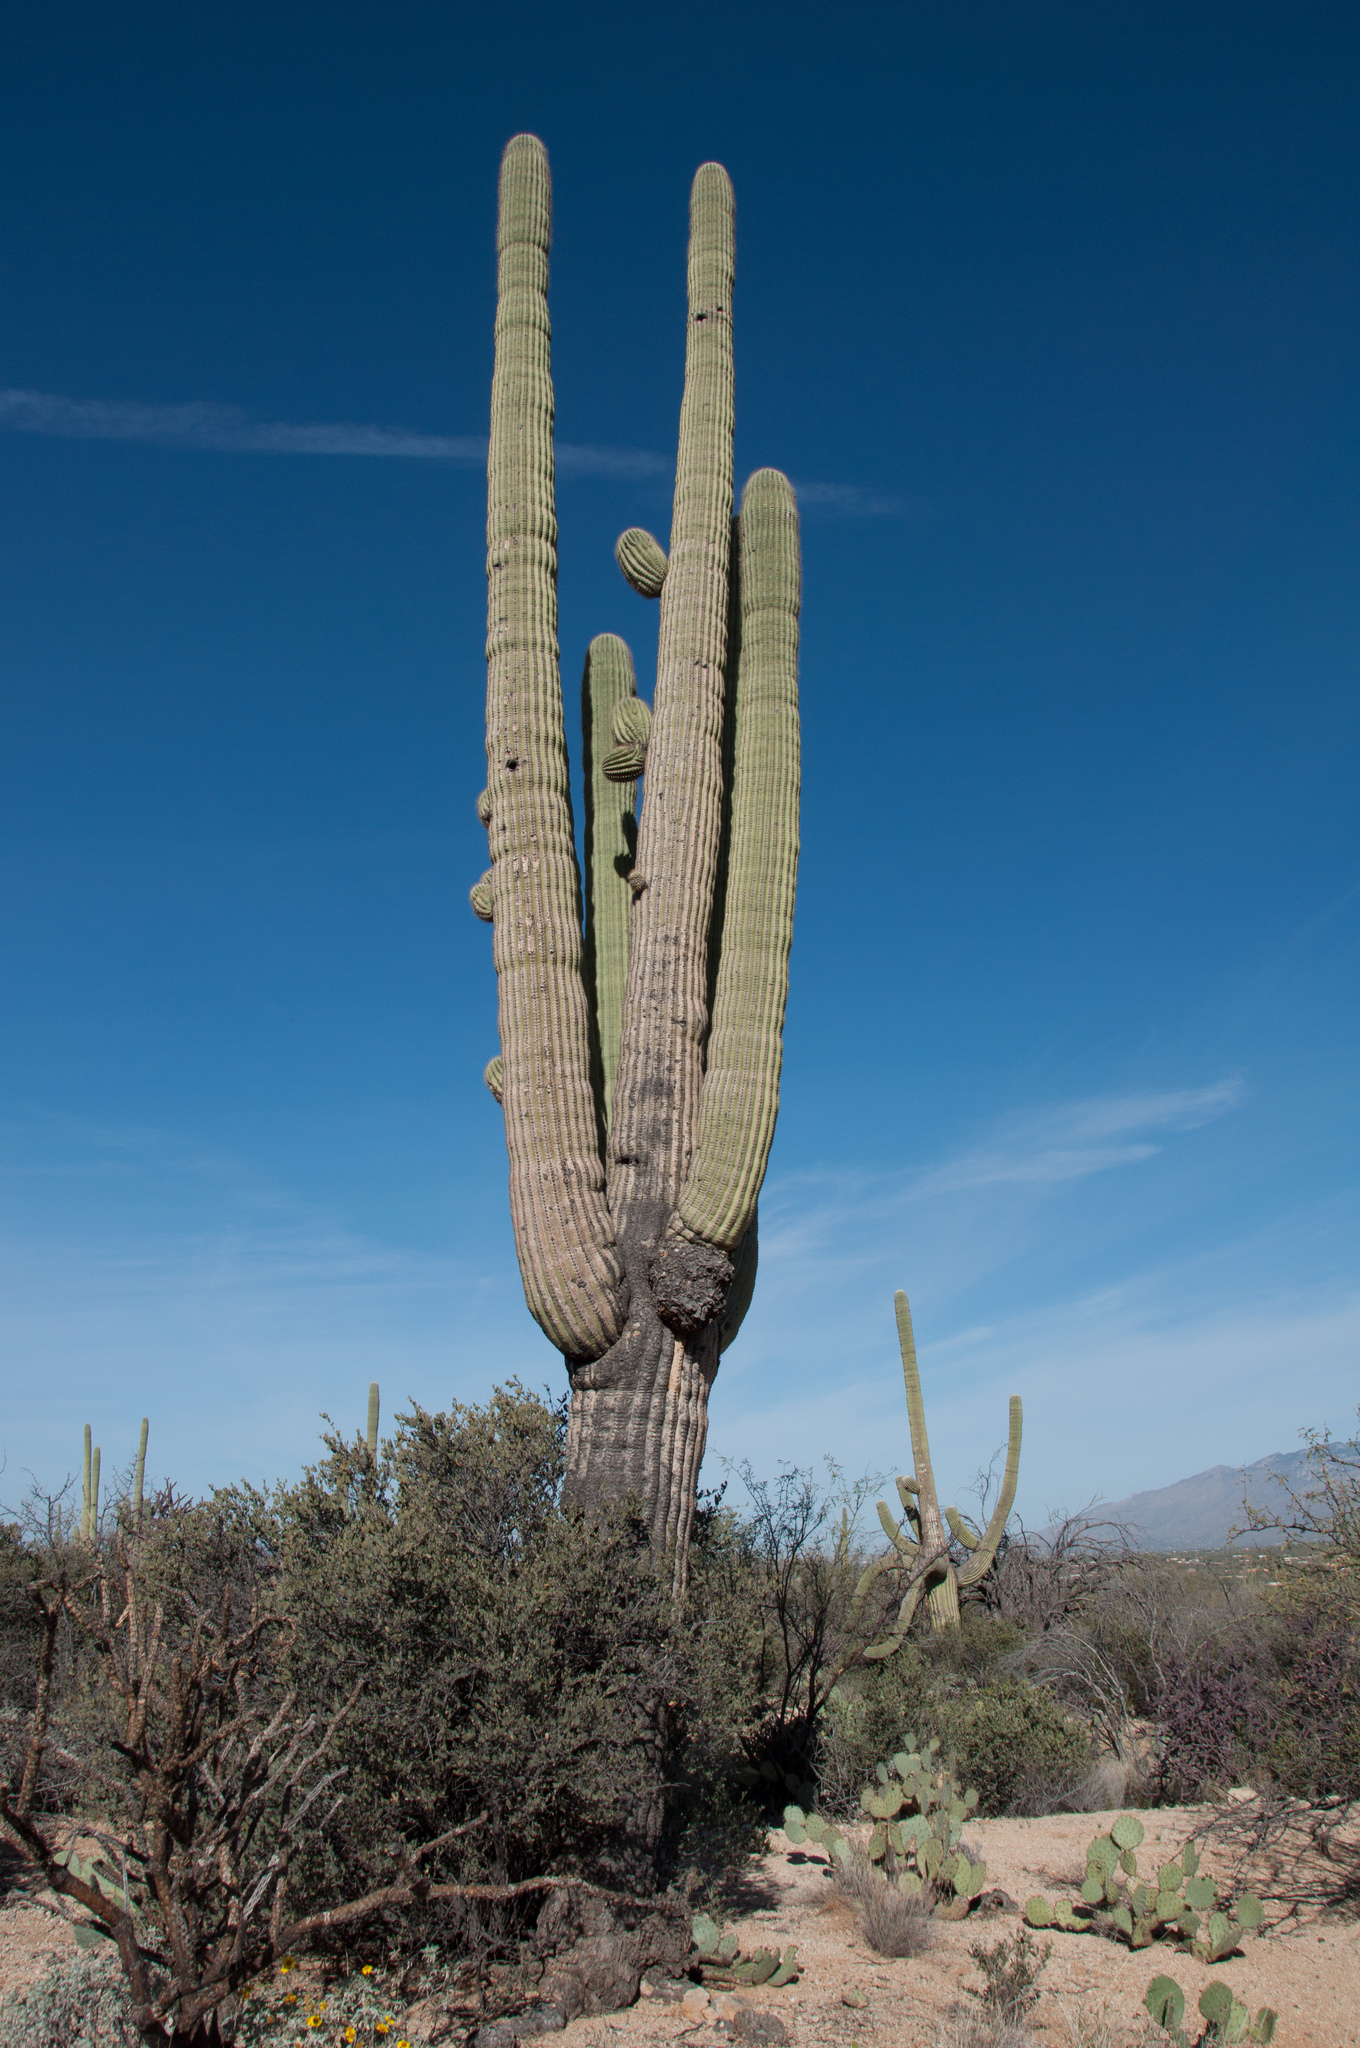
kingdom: Plantae
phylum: Tracheophyta
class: Magnoliopsida
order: Caryophyllales
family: Cactaceae
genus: Carnegiea
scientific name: Carnegiea gigantea
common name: Saguaro
